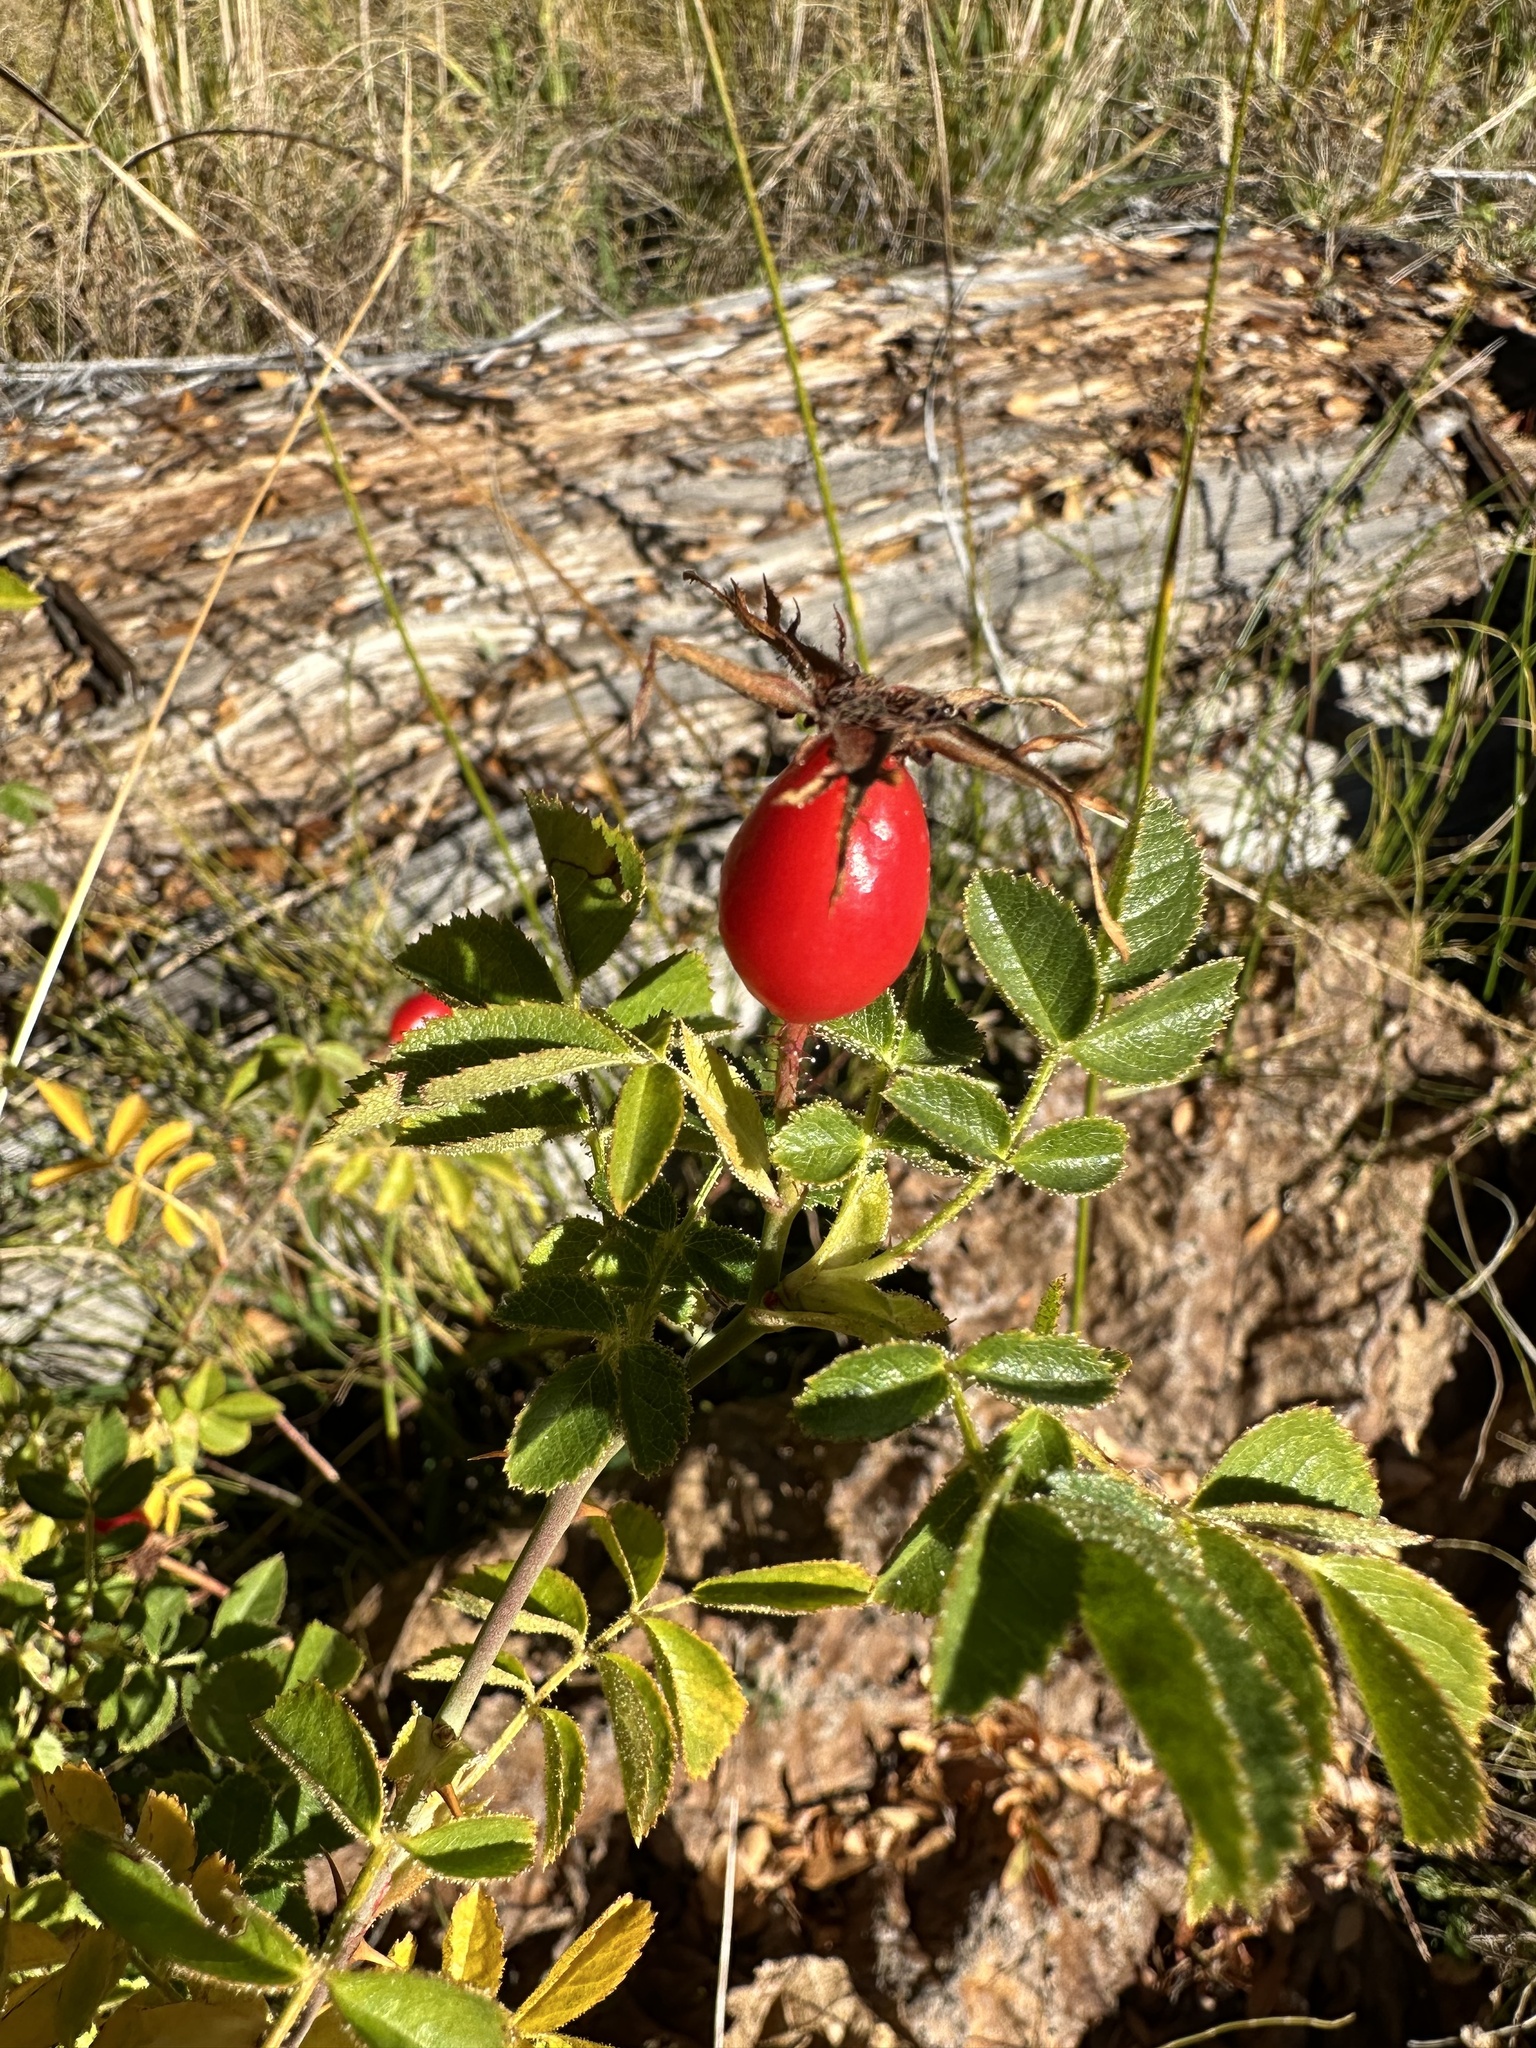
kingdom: Plantae
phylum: Tracheophyta
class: Magnoliopsida
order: Rosales
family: Rosaceae
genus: Rosa
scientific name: Rosa rubiginosa
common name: Sweet-briar
